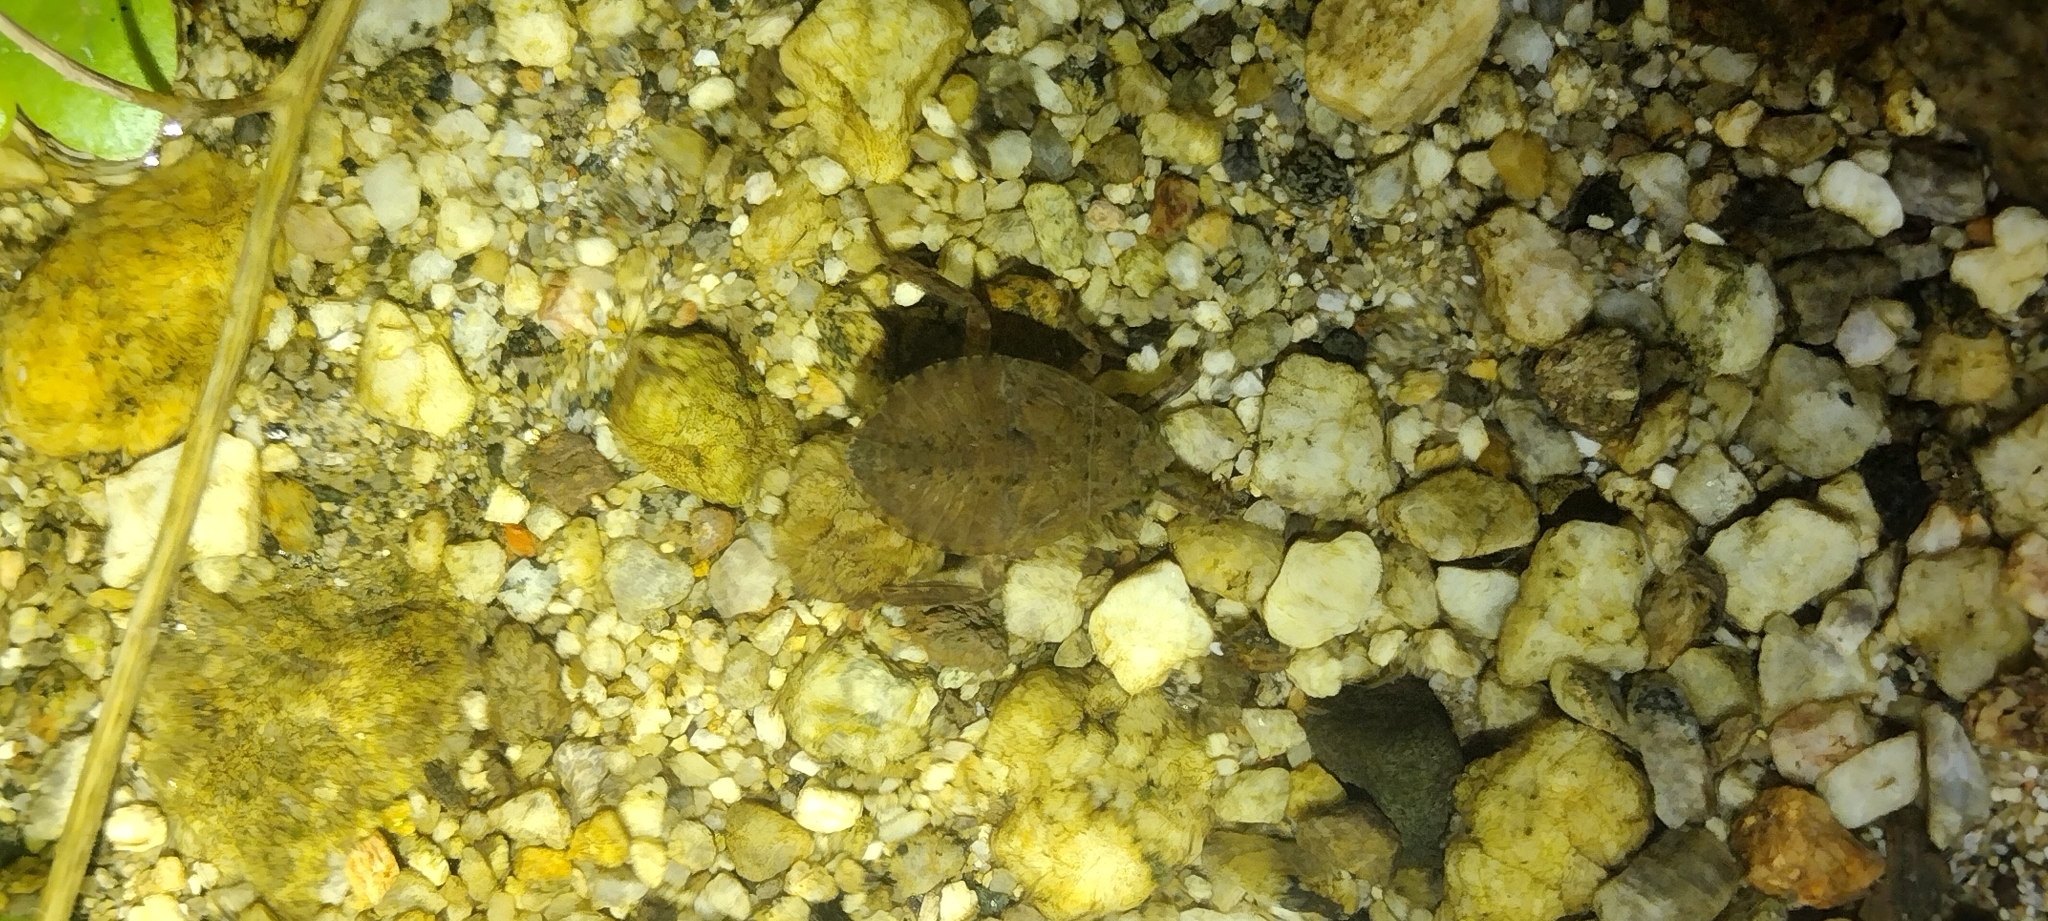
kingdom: Animalia
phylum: Arthropoda
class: Insecta
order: Hemiptera
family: Belostomatidae
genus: Abedus
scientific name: Abedus indentatus
